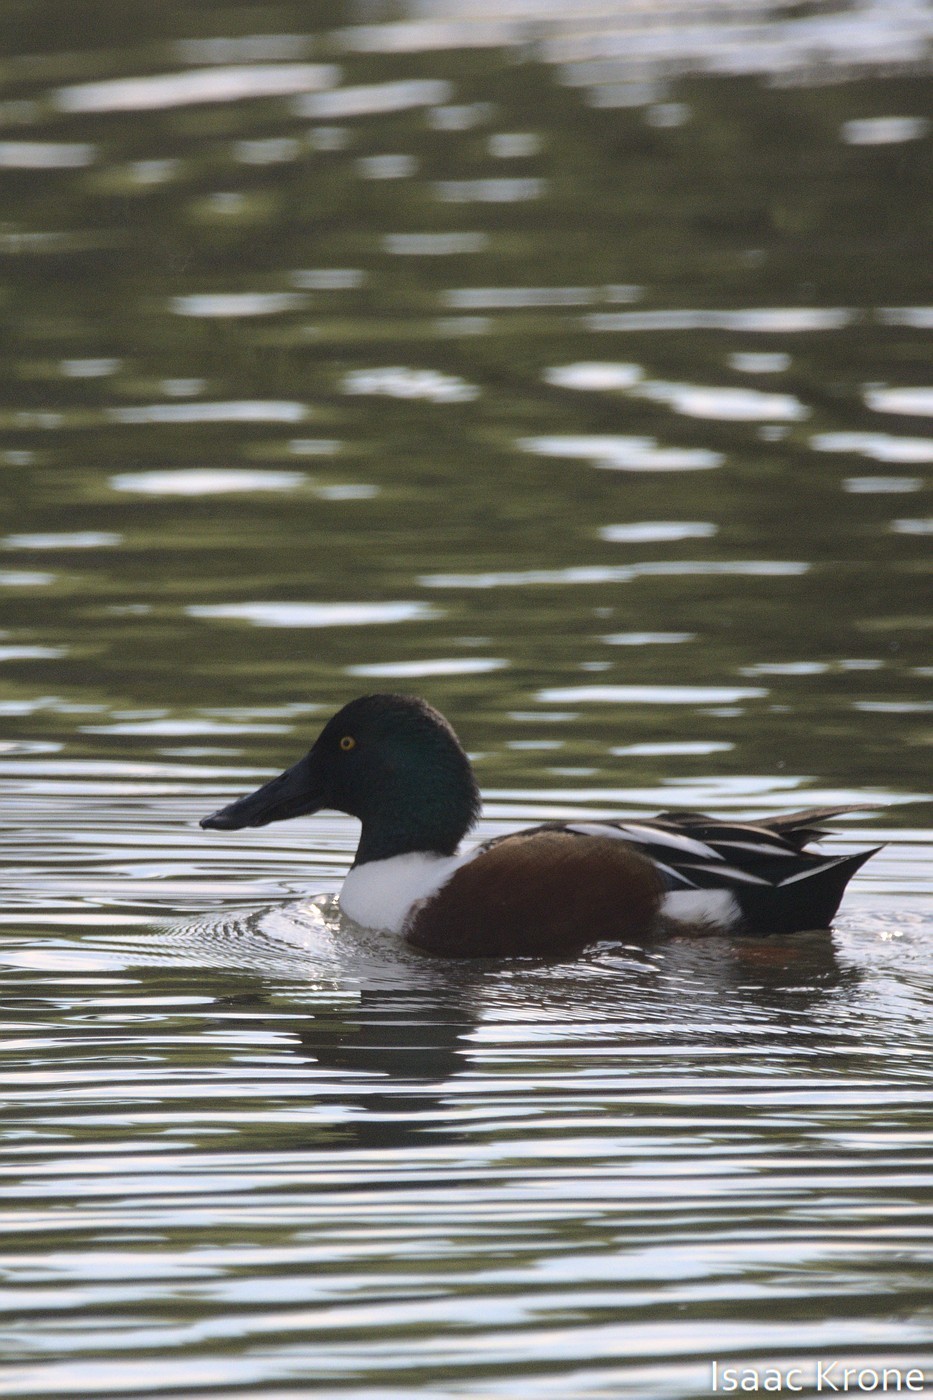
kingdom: Animalia
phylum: Chordata
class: Aves
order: Anseriformes
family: Anatidae
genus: Spatula
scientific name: Spatula clypeata
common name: Northern shoveler
